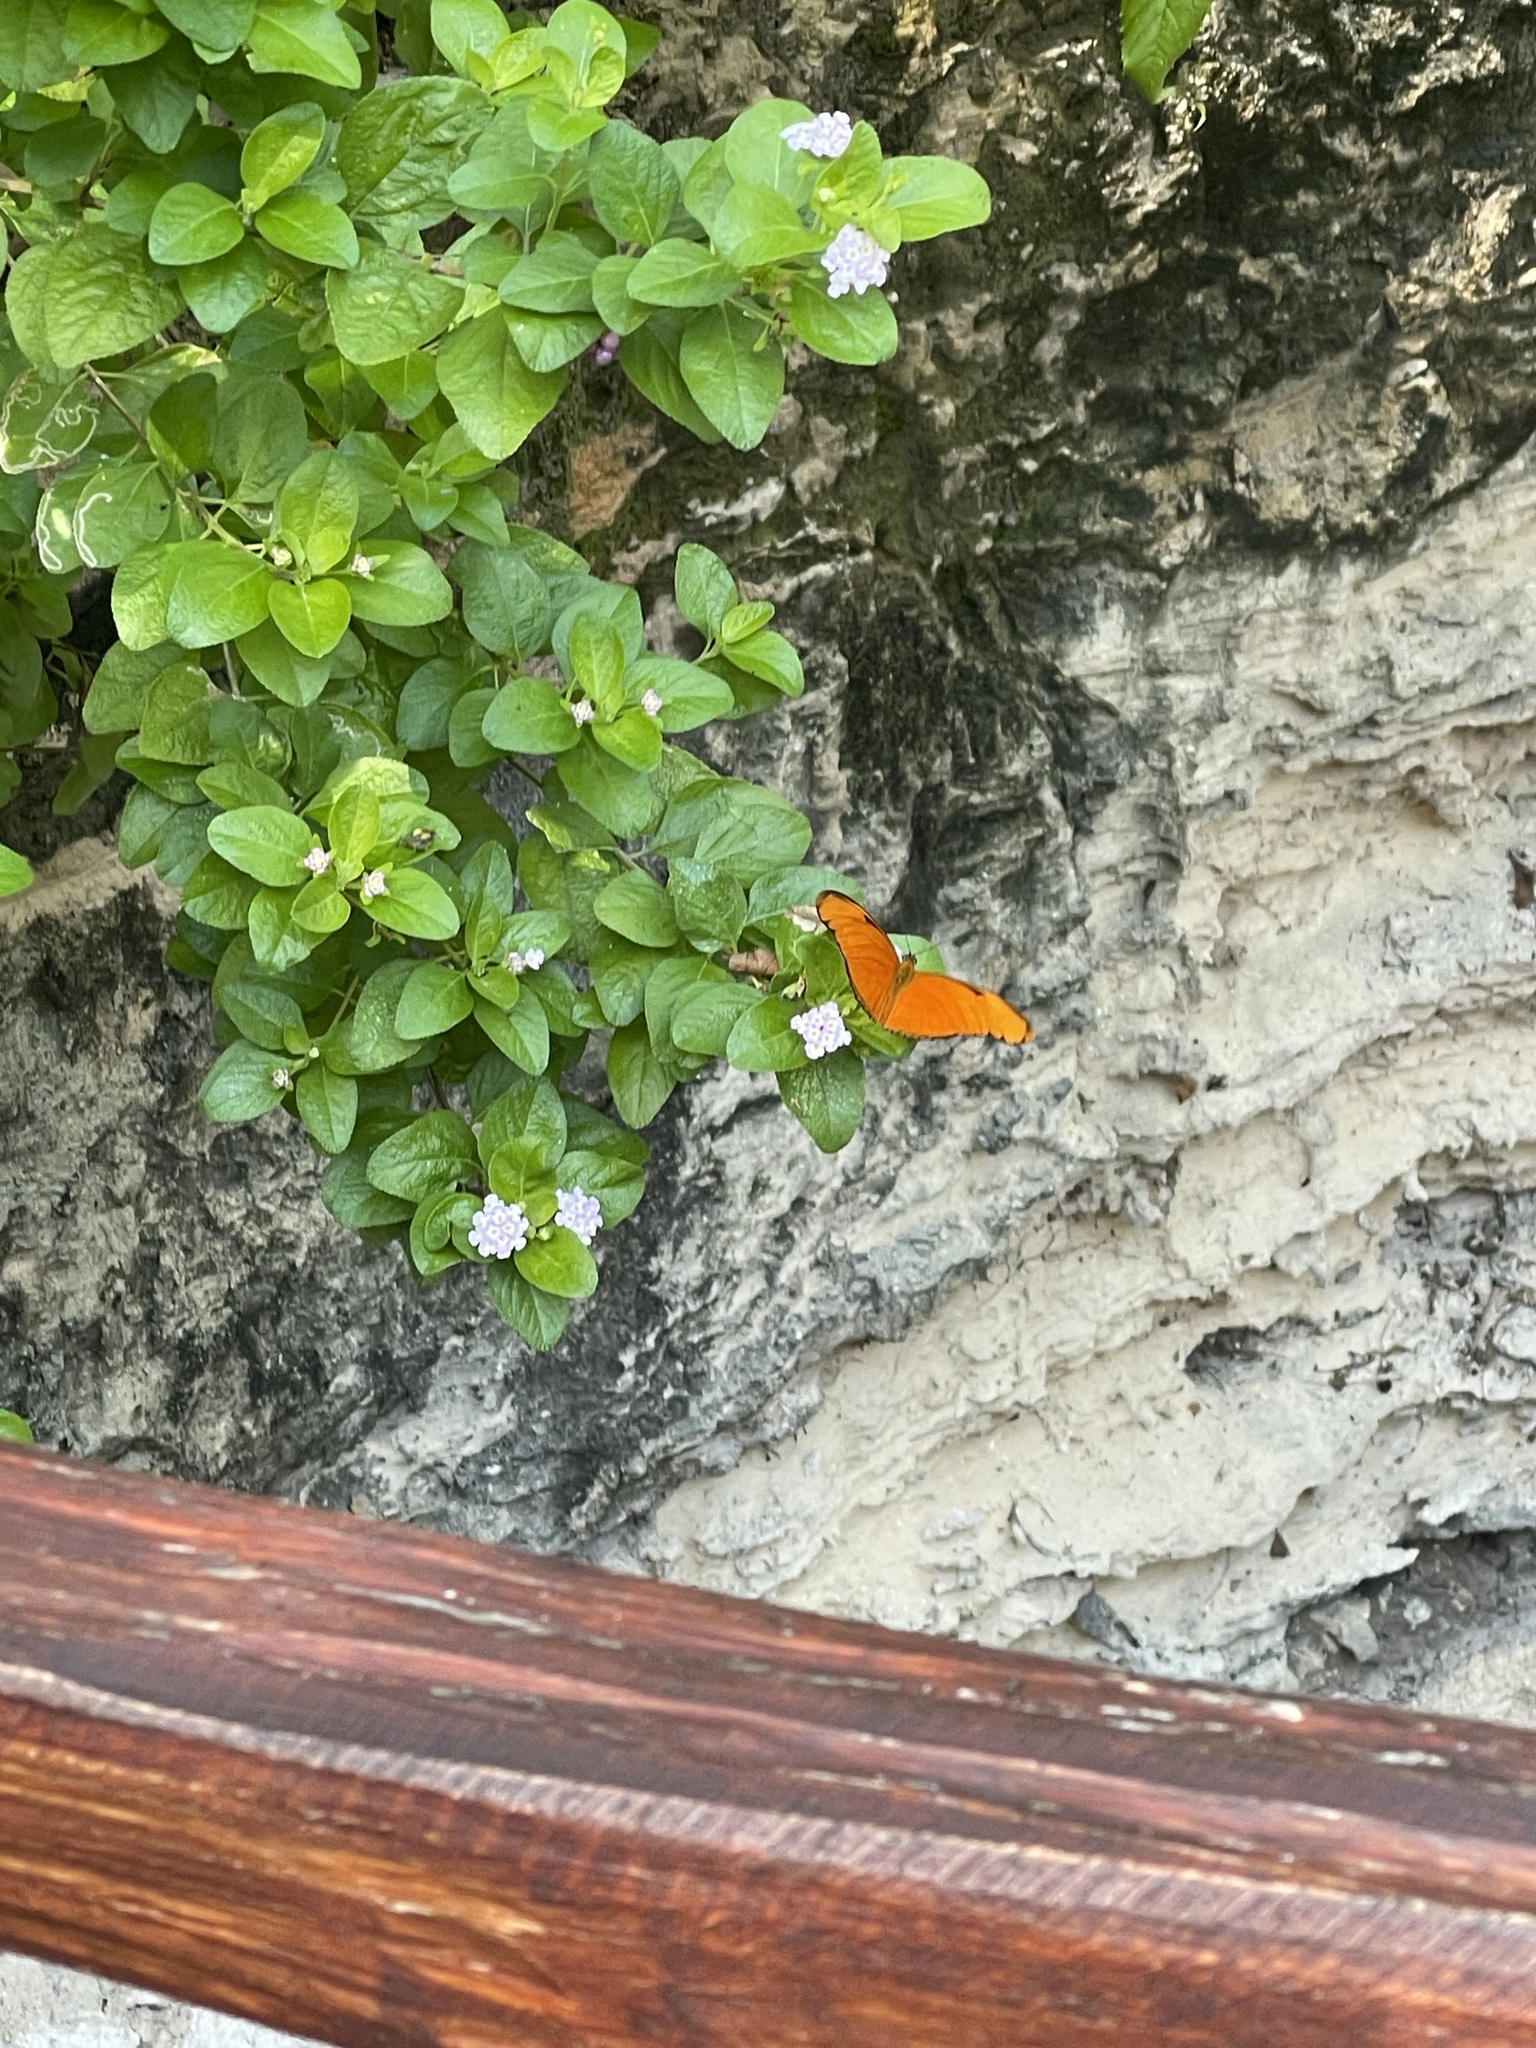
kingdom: Animalia
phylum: Arthropoda
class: Insecta
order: Lepidoptera
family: Nymphalidae
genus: Dryas
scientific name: Dryas iulia
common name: Flambeau
